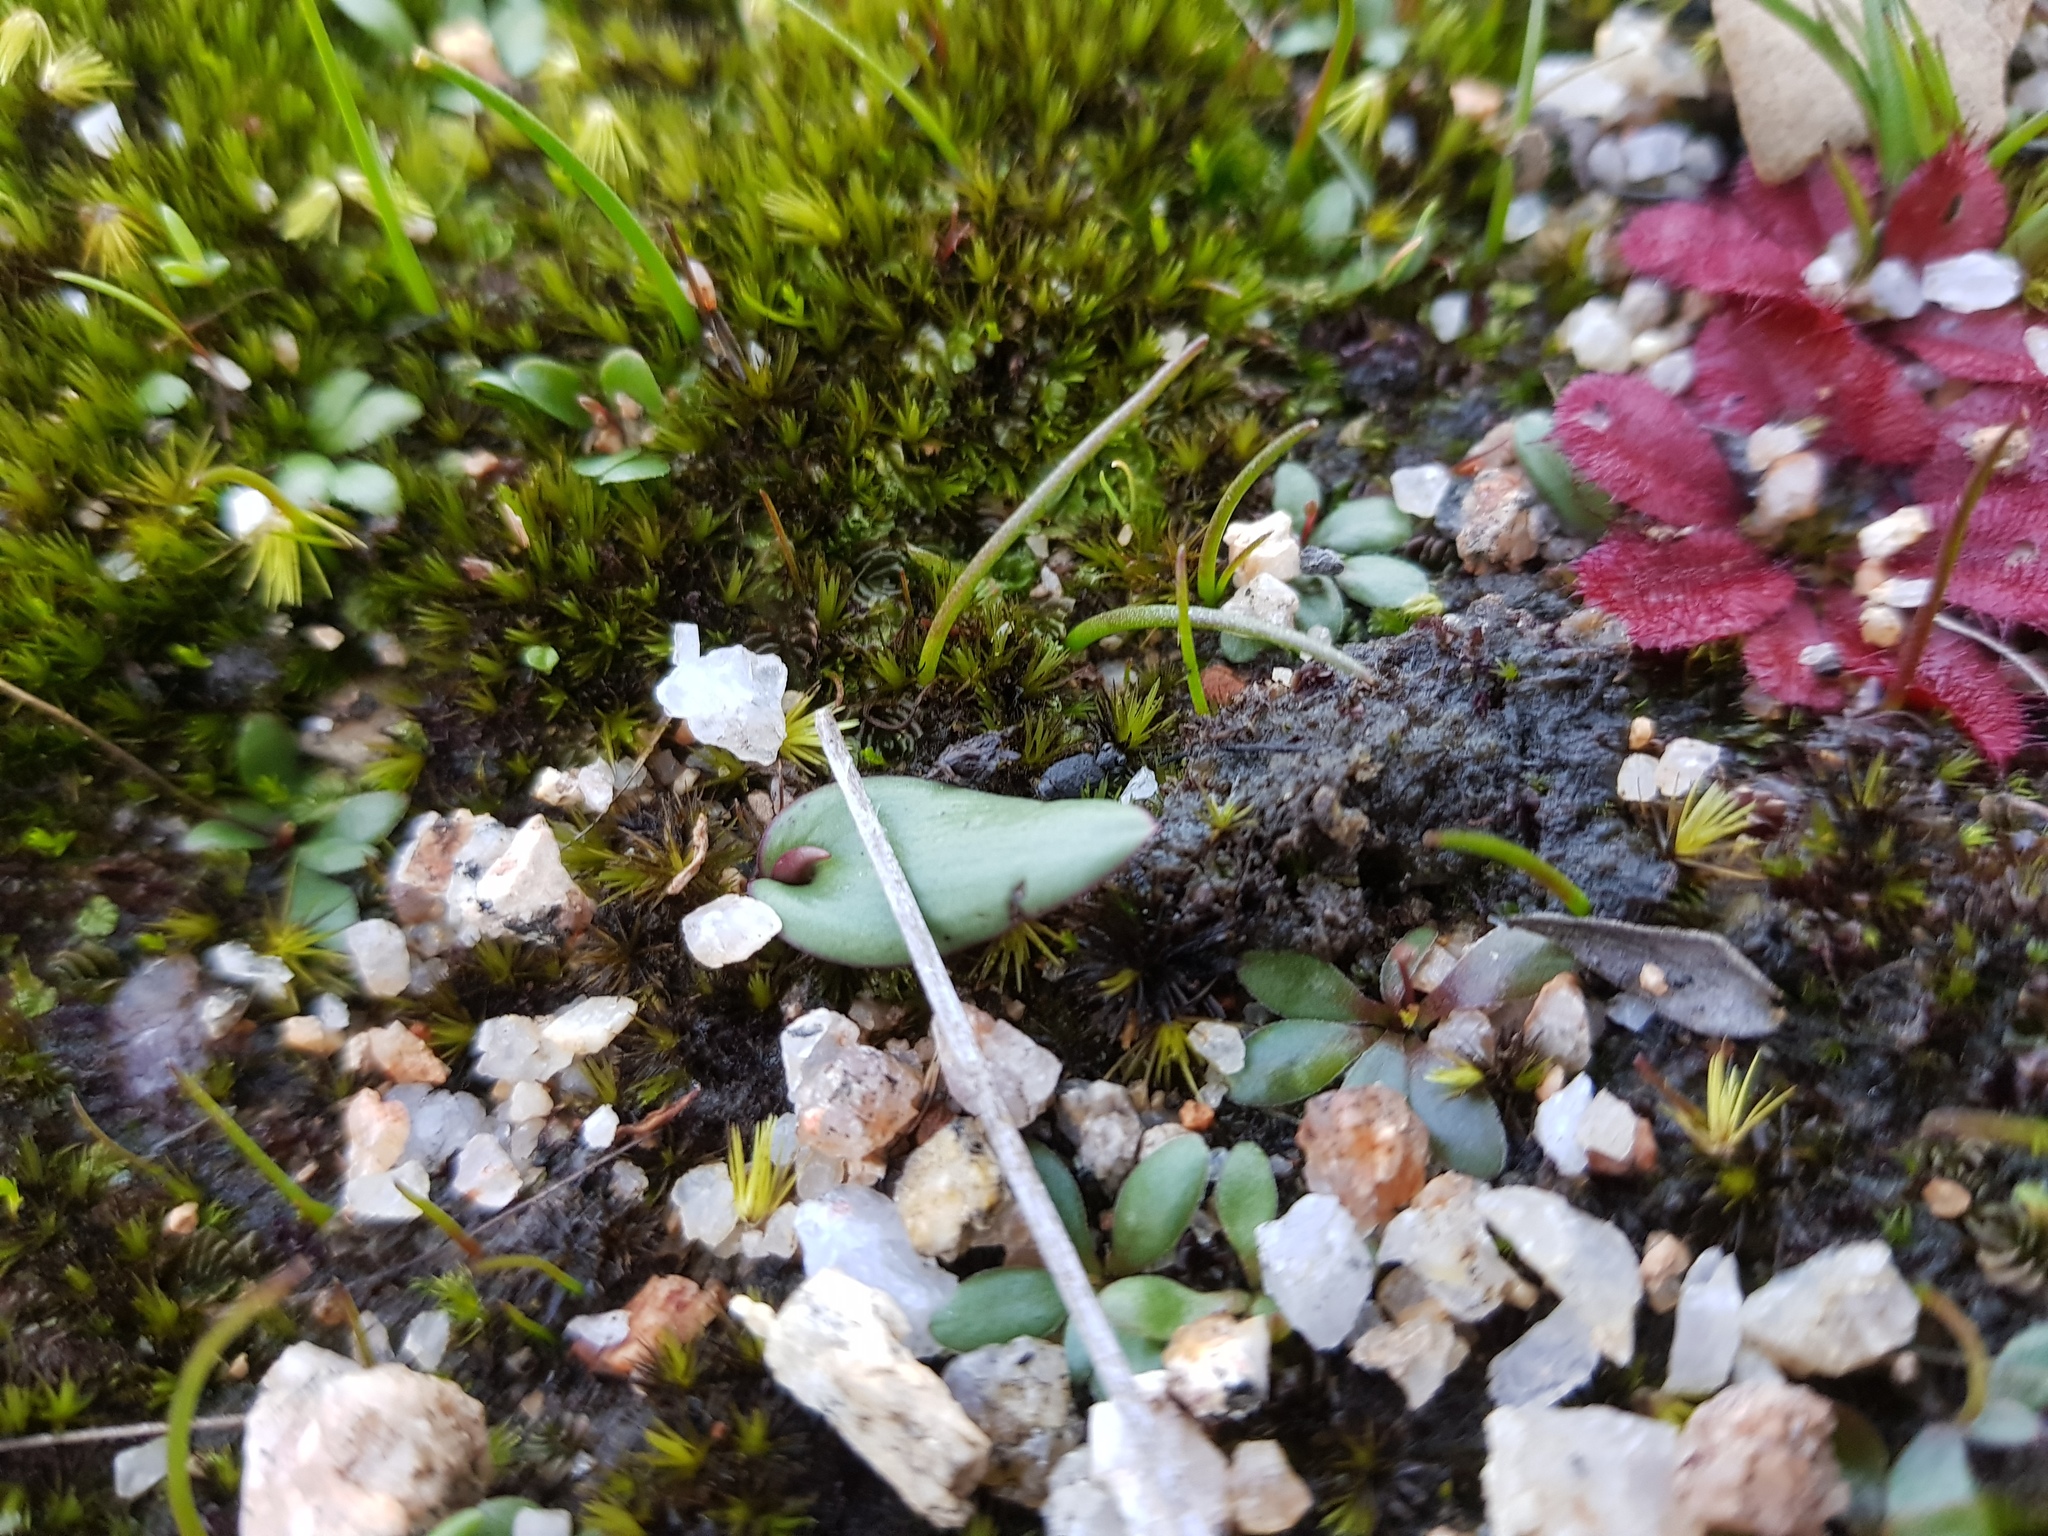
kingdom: Plantae
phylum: Tracheophyta
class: Liliopsida
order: Asparagales
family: Orchidaceae
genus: Spiculaea
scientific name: Spiculaea ciliata
